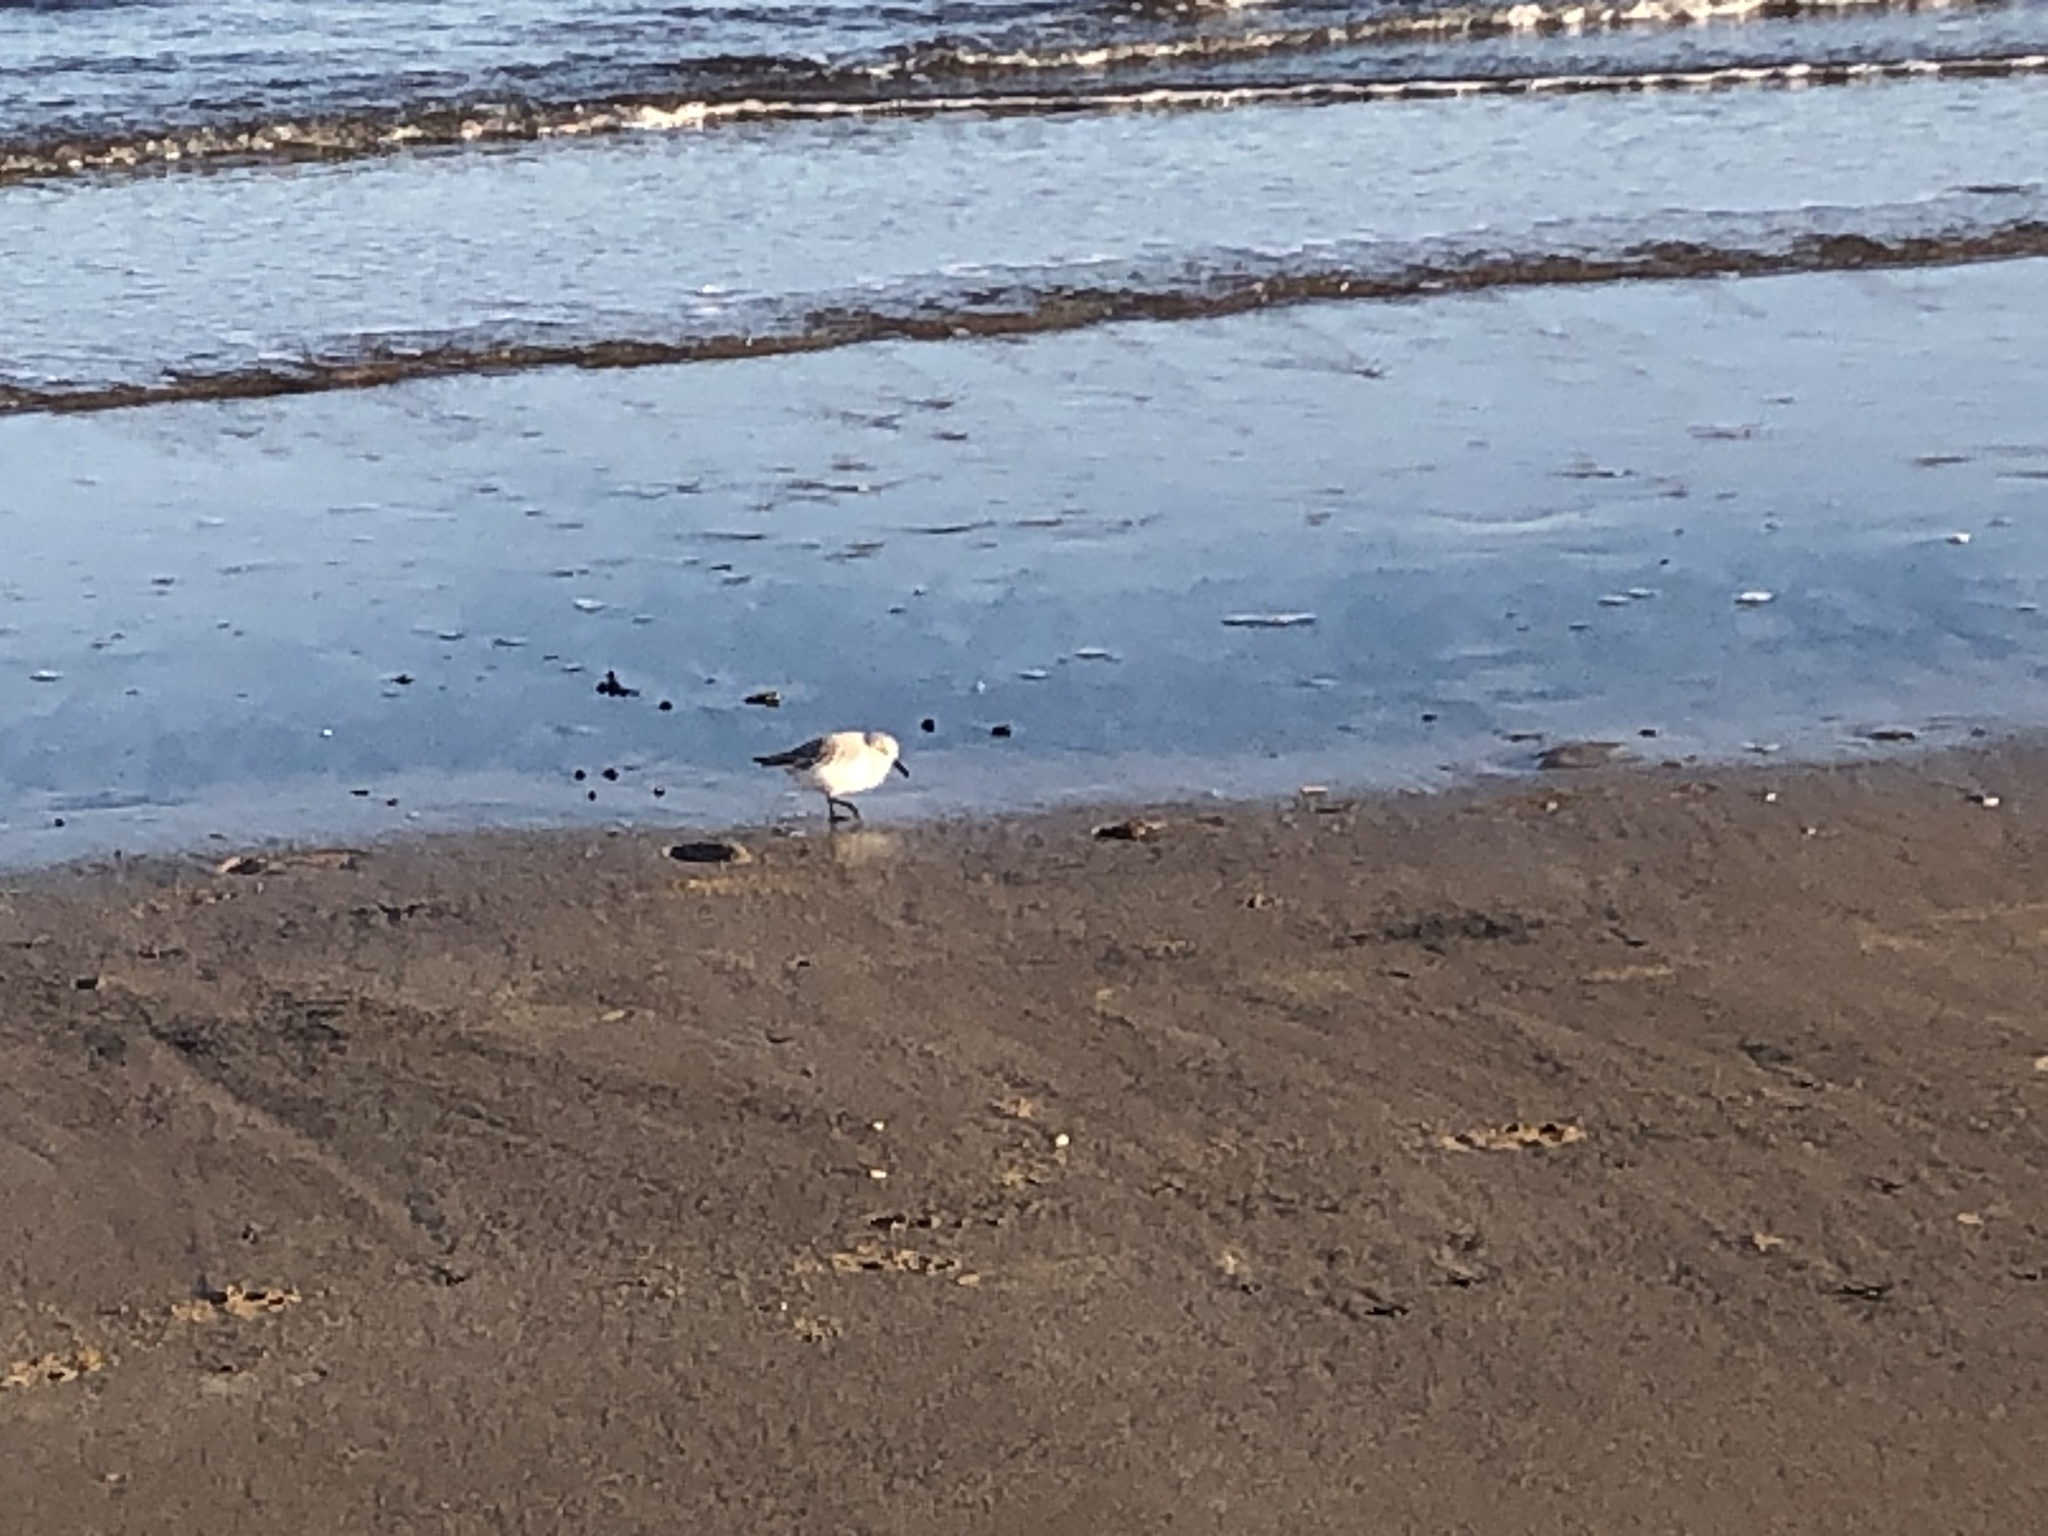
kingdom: Animalia
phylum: Chordata
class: Aves
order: Charadriiformes
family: Scolopacidae
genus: Calidris
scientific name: Calidris alba
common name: Sanderling
